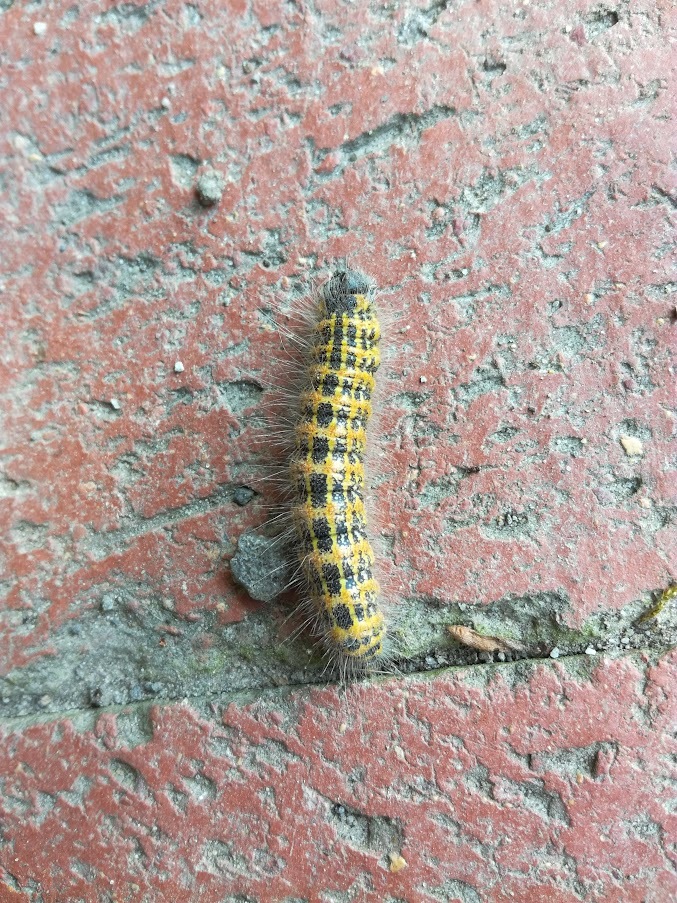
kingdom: Animalia
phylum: Arthropoda
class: Insecta
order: Lepidoptera
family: Notodontidae
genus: Phalera
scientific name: Phalera bucephala
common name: Buff-tip
